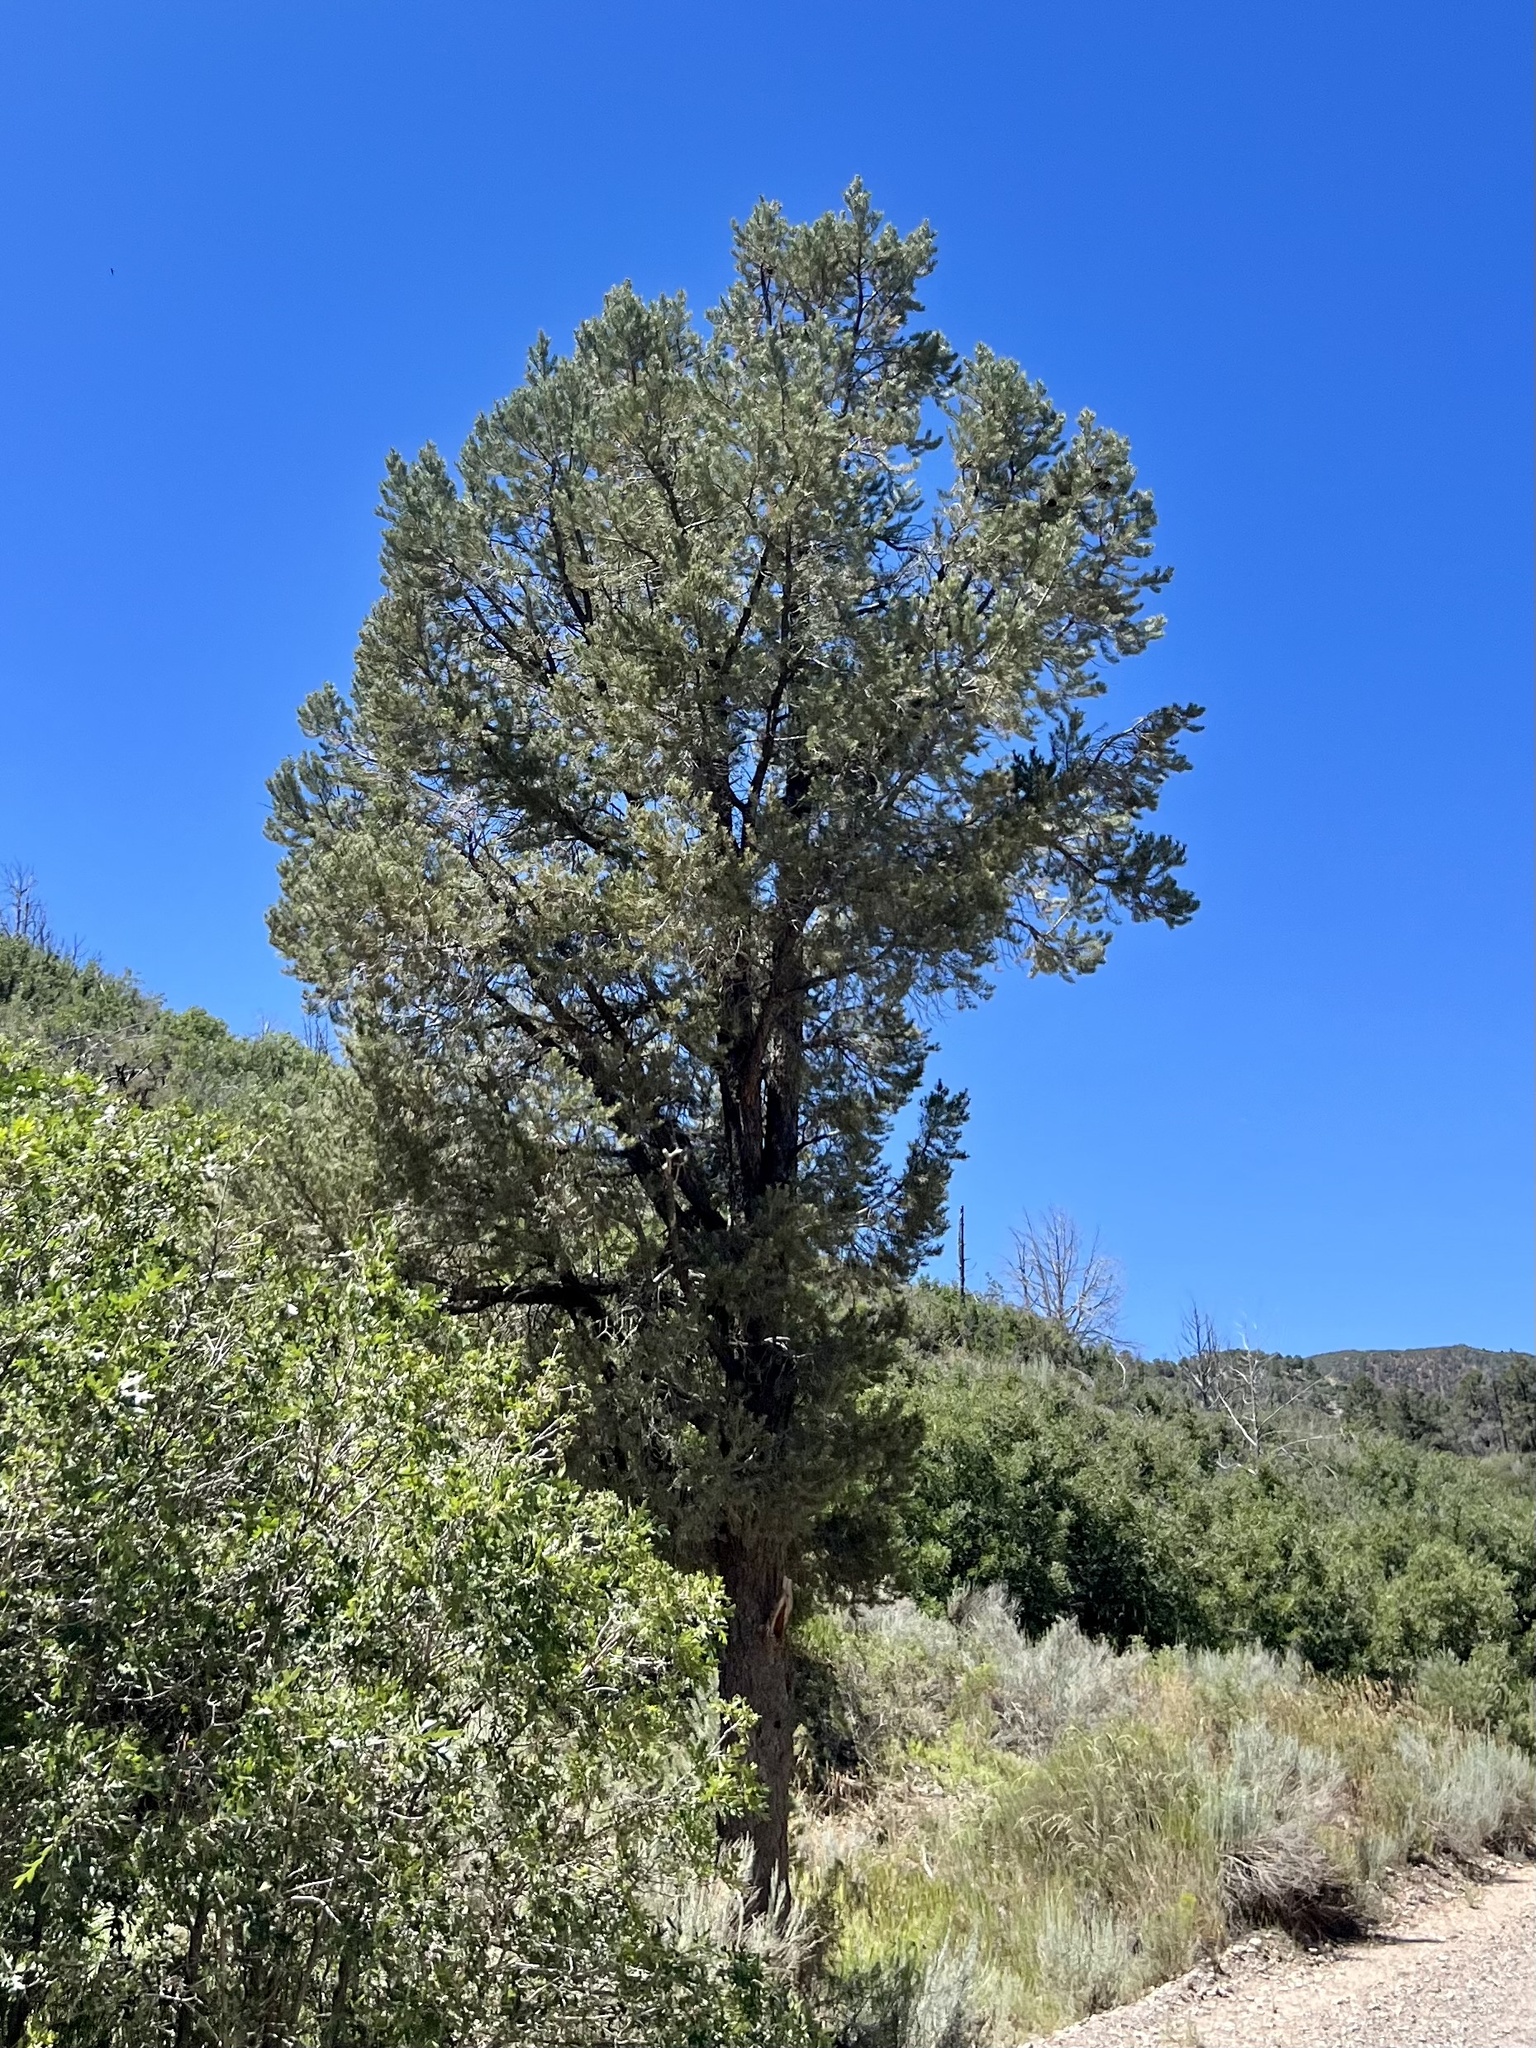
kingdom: Plantae
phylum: Tracheophyta
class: Pinopsida
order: Pinales
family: Pinaceae
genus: Pinus
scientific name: Pinus monophylla
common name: One-leaved nut pine
